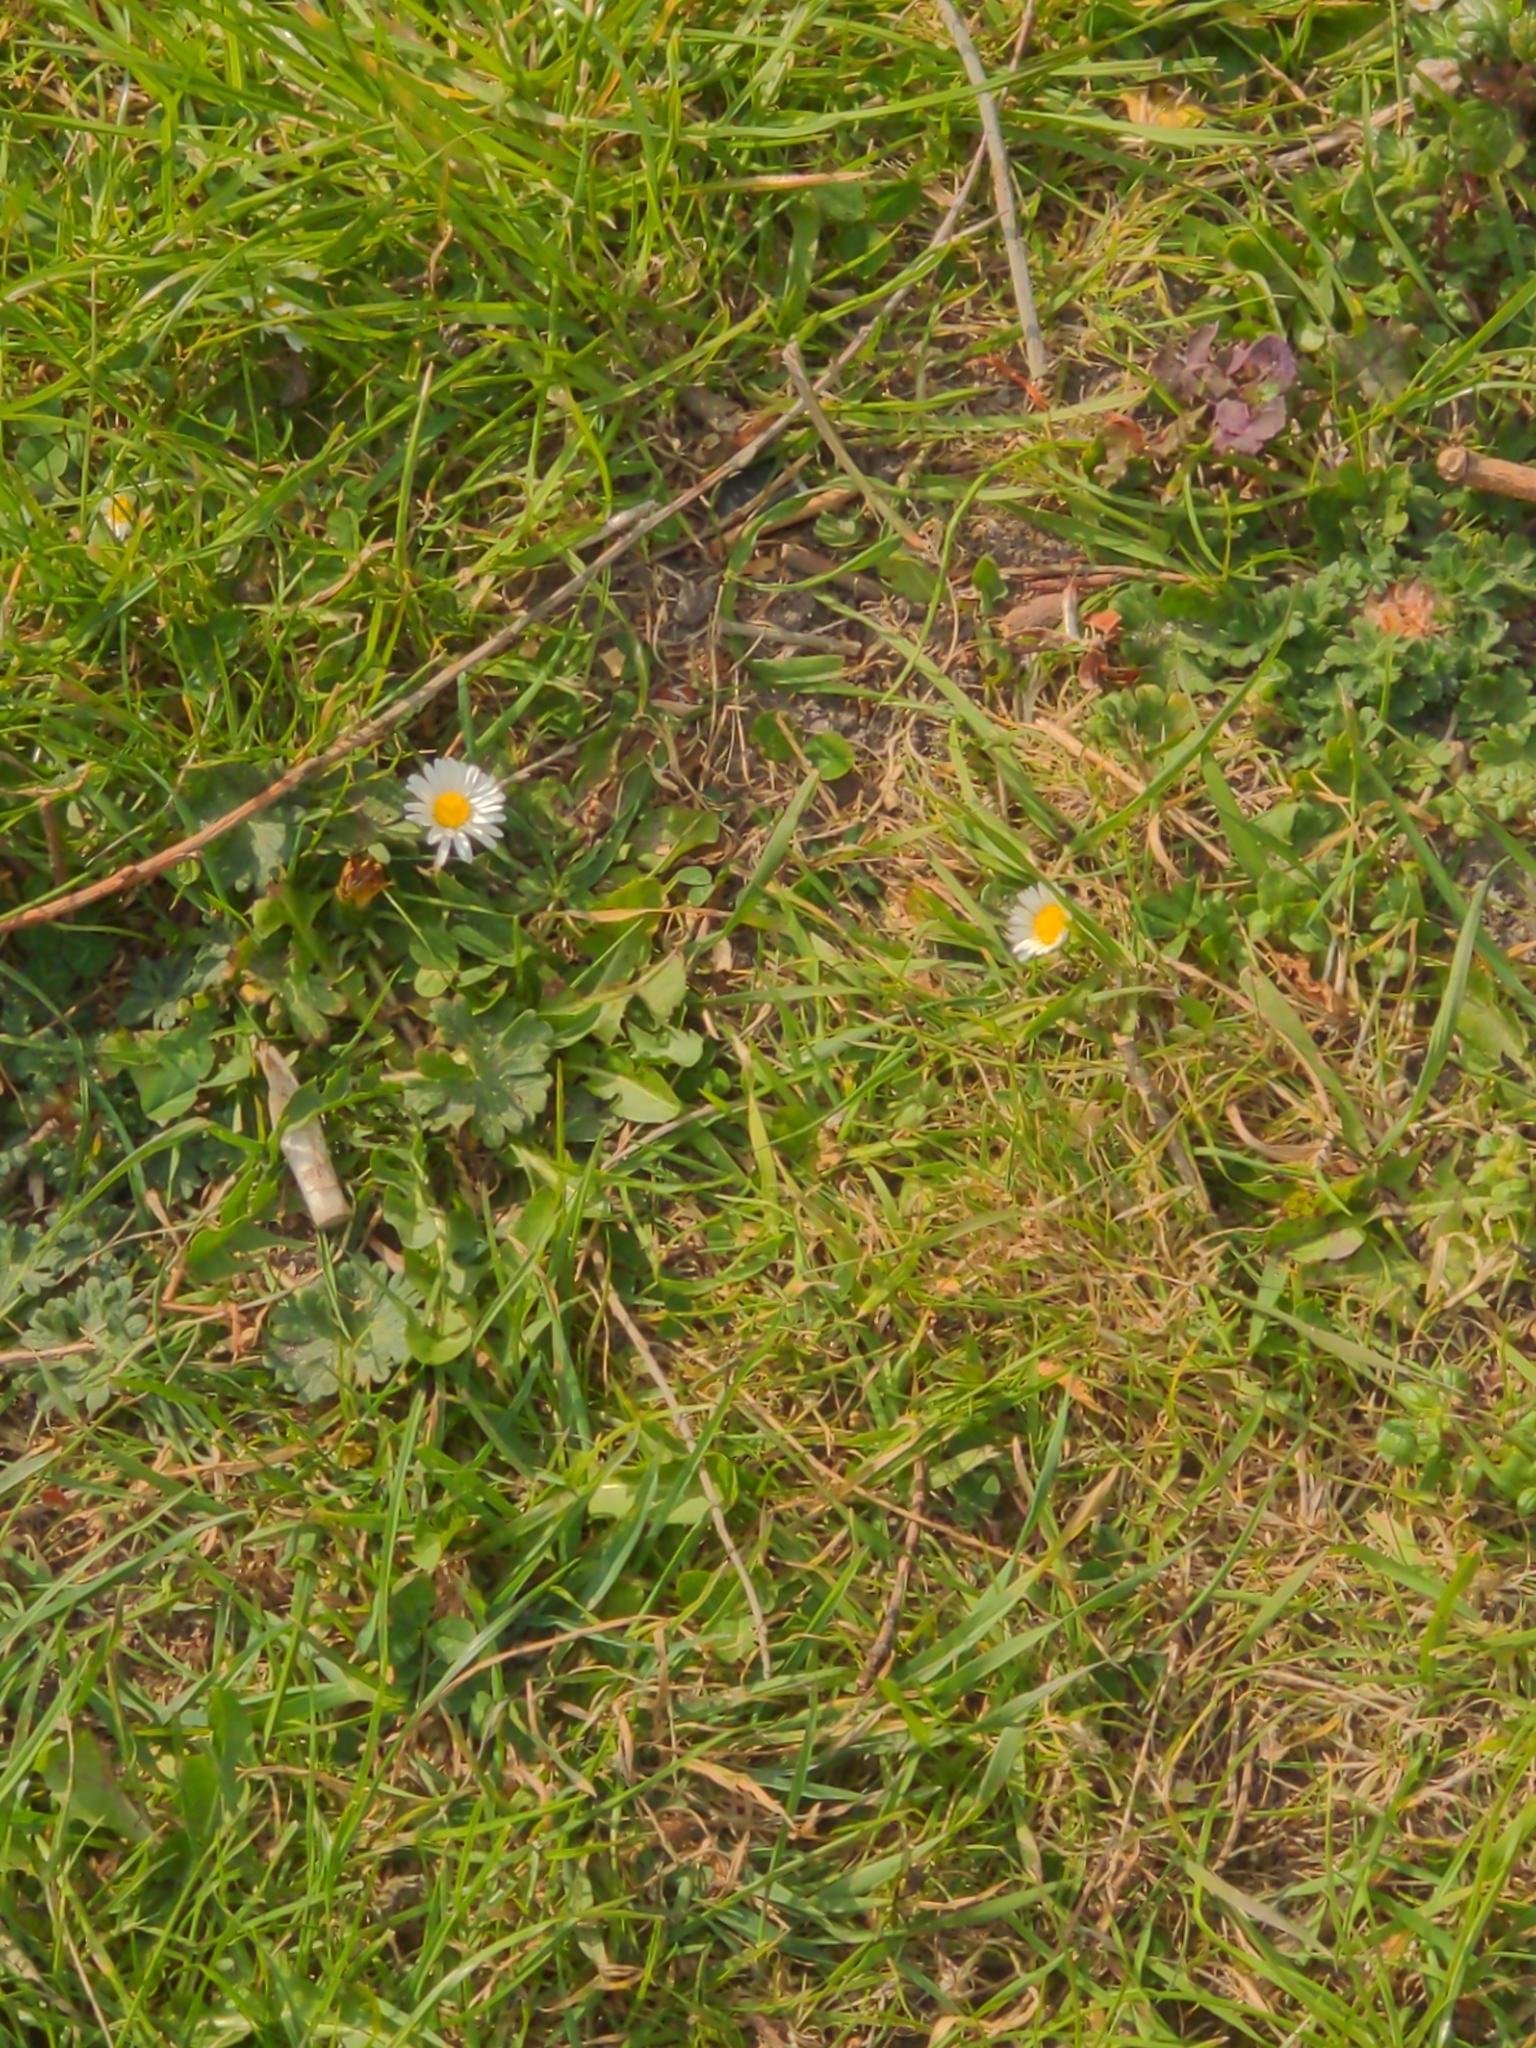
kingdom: Plantae
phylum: Tracheophyta
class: Magnoliopsida
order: Asterales
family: Asteraceae
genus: Bellis
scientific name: Bellis perennis
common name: Lawndaisy
